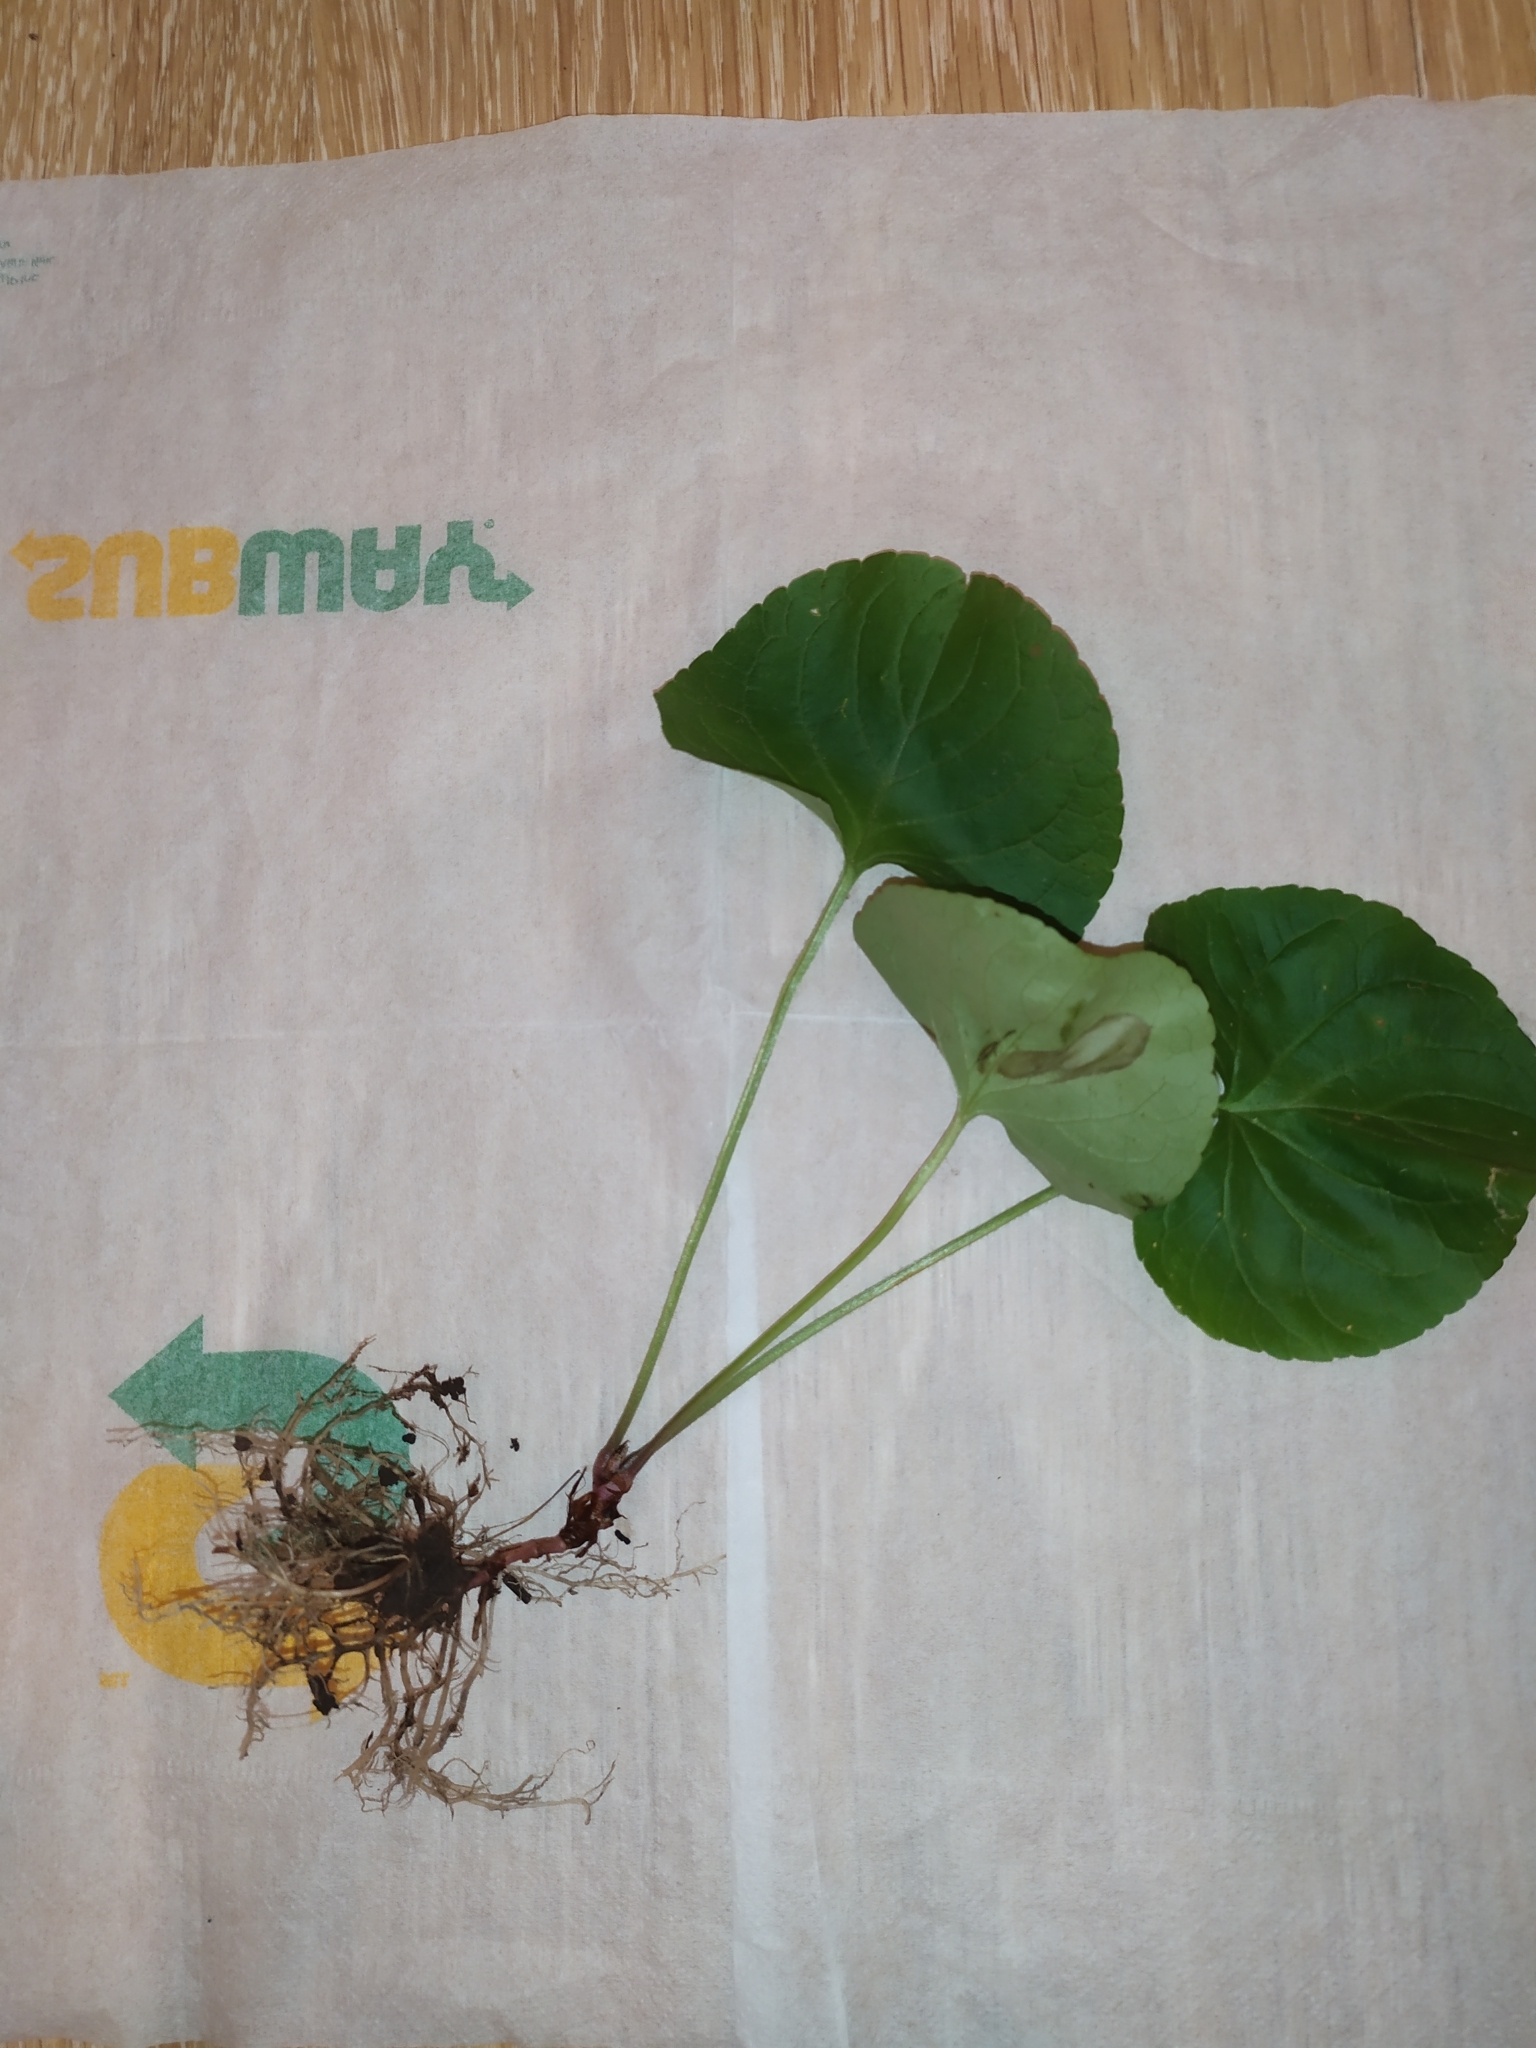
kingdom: Plantae
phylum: Tracheophyta
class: Magnoliopsida
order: Malpighiales
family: Violaceae
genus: Viola
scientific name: Viola mirabilis
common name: Wonder violet
